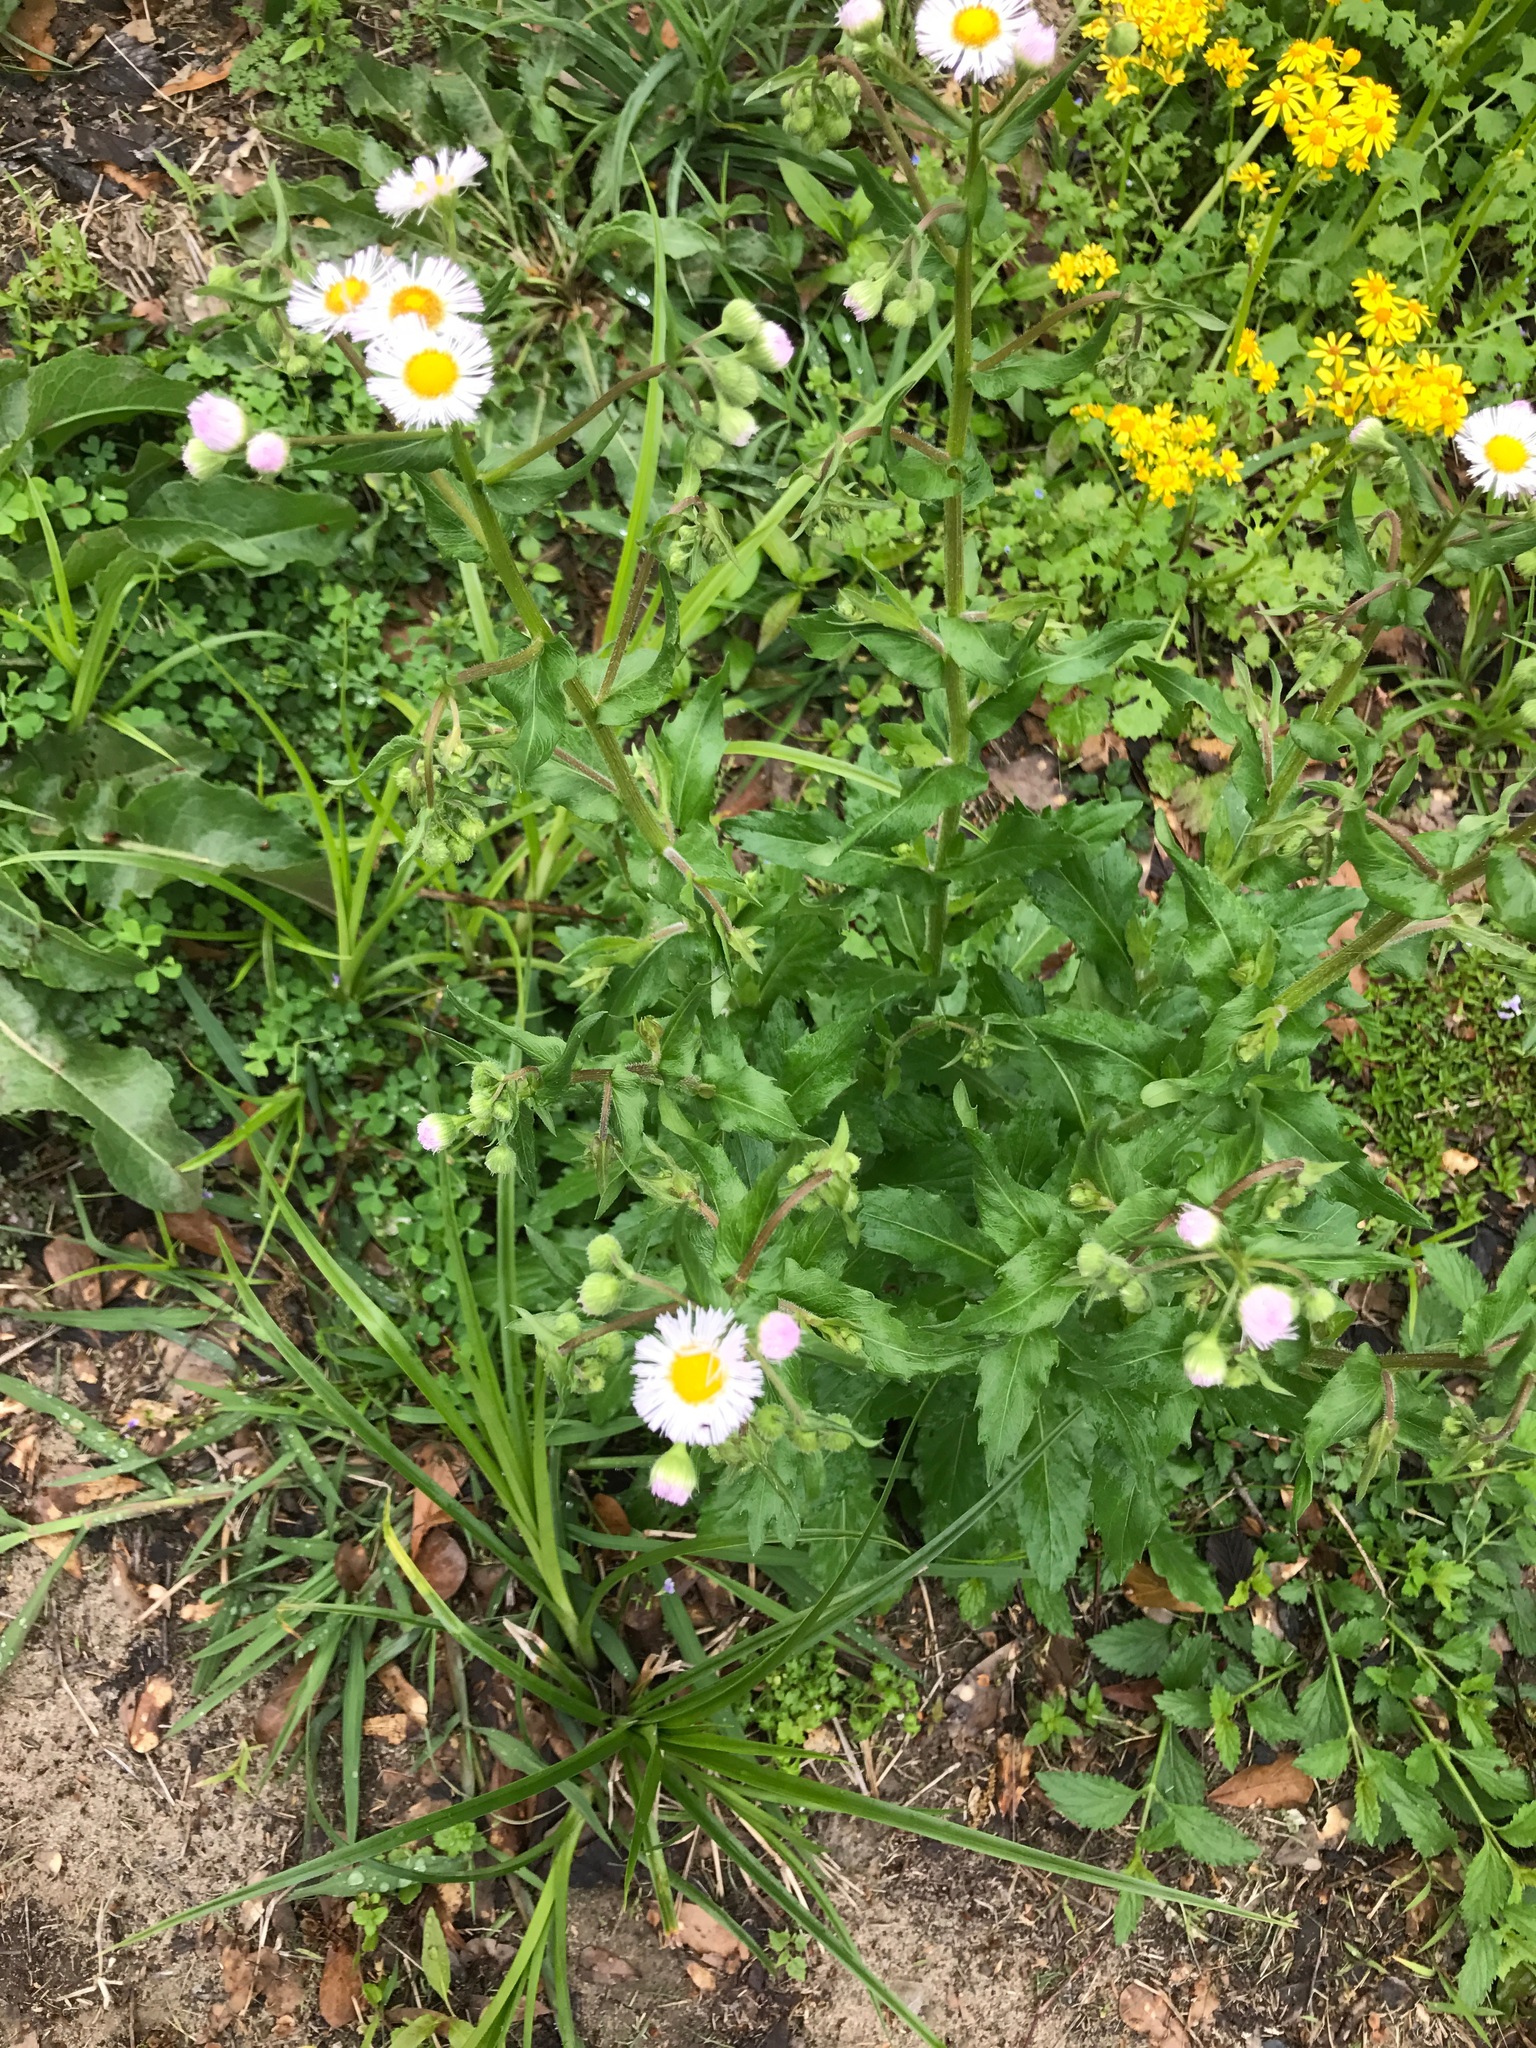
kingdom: Plantae
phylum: Tracheophyta
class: Magnoliopsida
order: Asterales
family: Asteraceae
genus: Erigeron
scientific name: Erigeron philadelphicus
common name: Robin's-plantain
